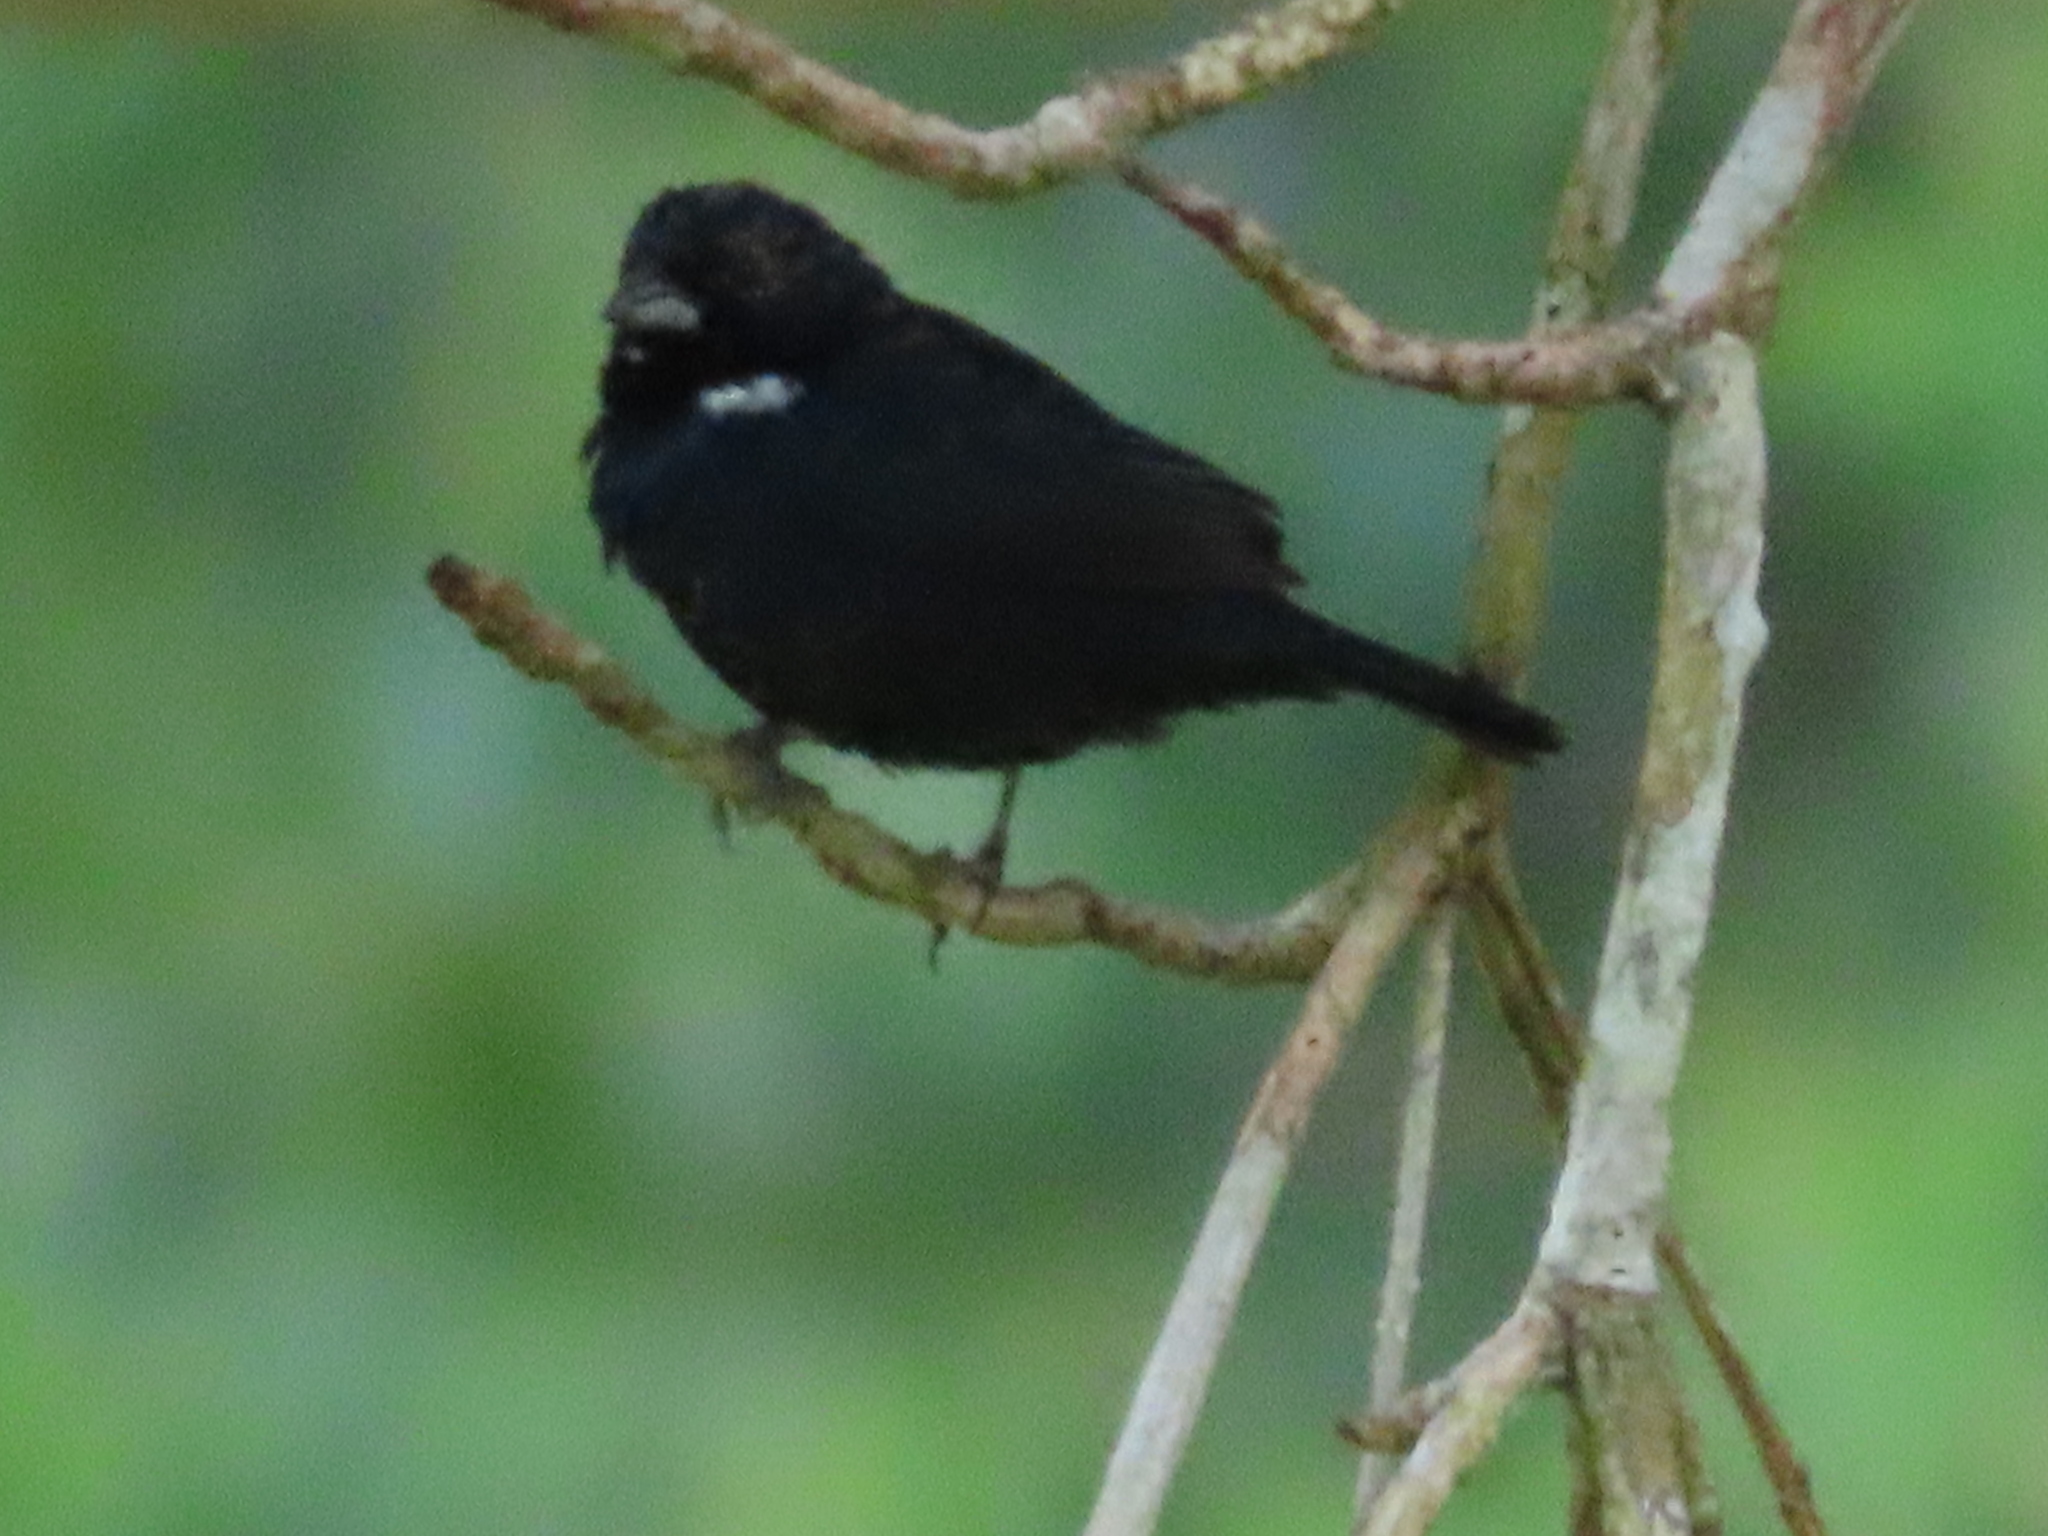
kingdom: Animalia
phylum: Chordata
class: Aves
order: Passeriformes
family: Thraupidae
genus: Volatinia
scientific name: Volatinia jacarina
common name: Blue-black grassquit
